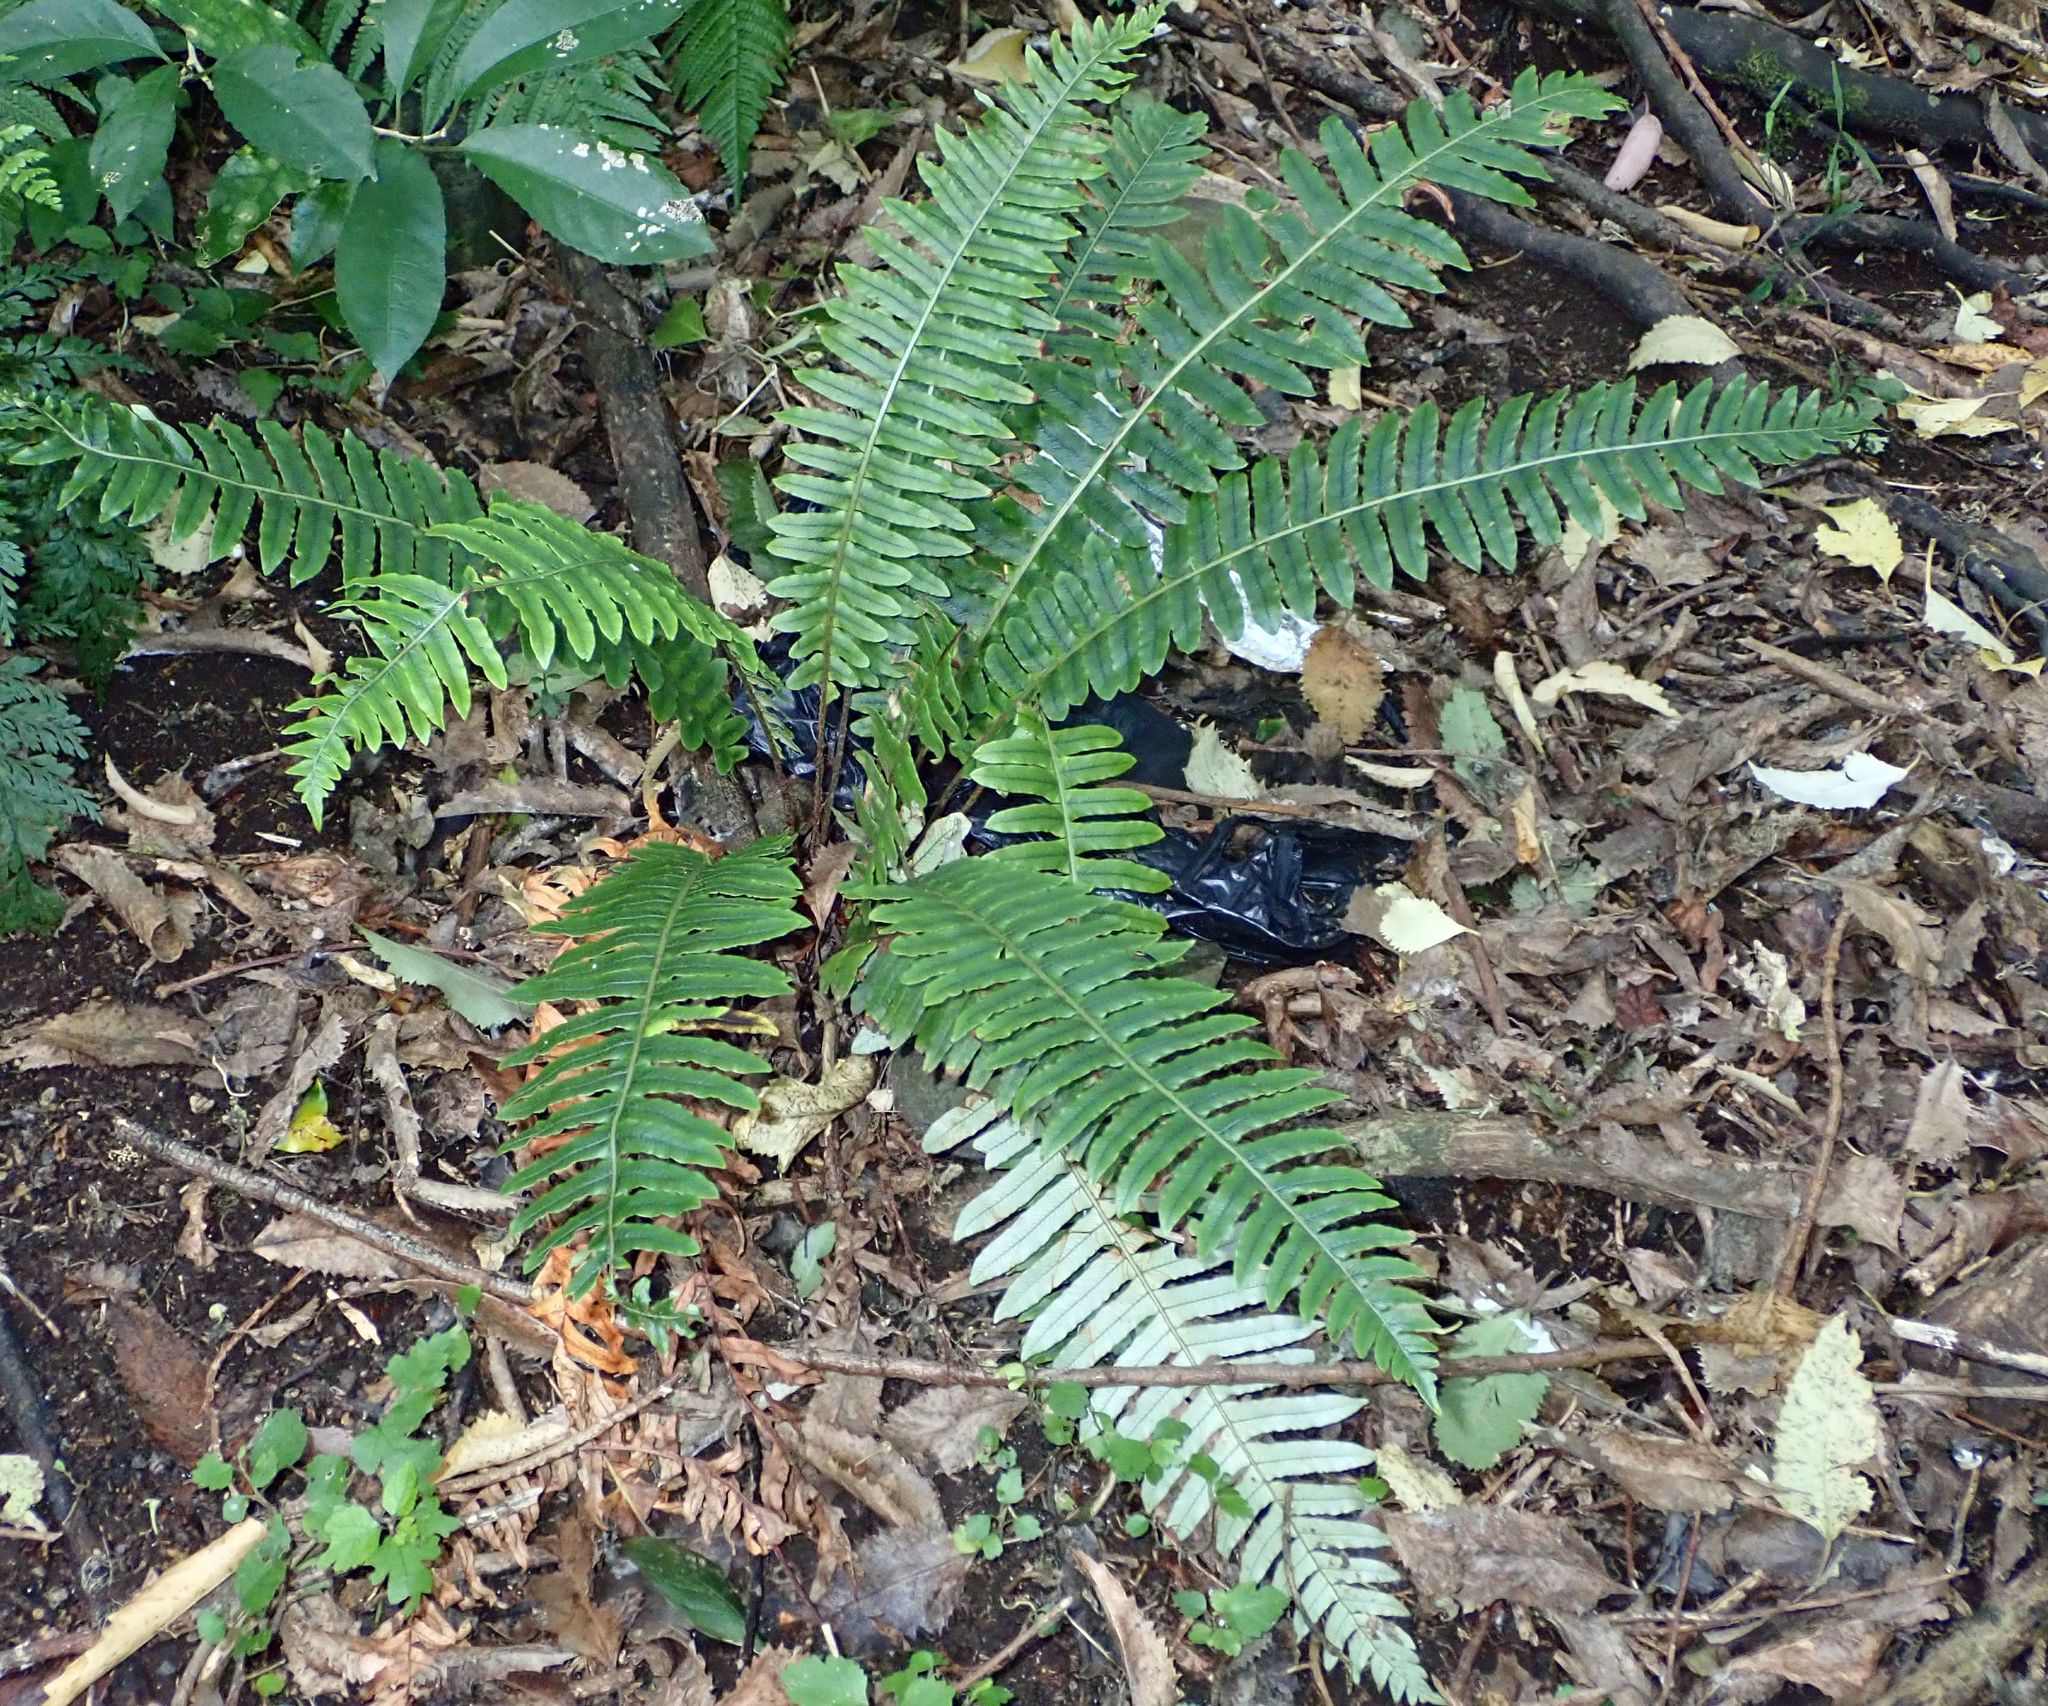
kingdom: Plantae
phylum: Tracheophyta
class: Polypodiopsida
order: Polypodiales
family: Blechnaceae
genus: Lomaria
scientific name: Lomaria discolor
